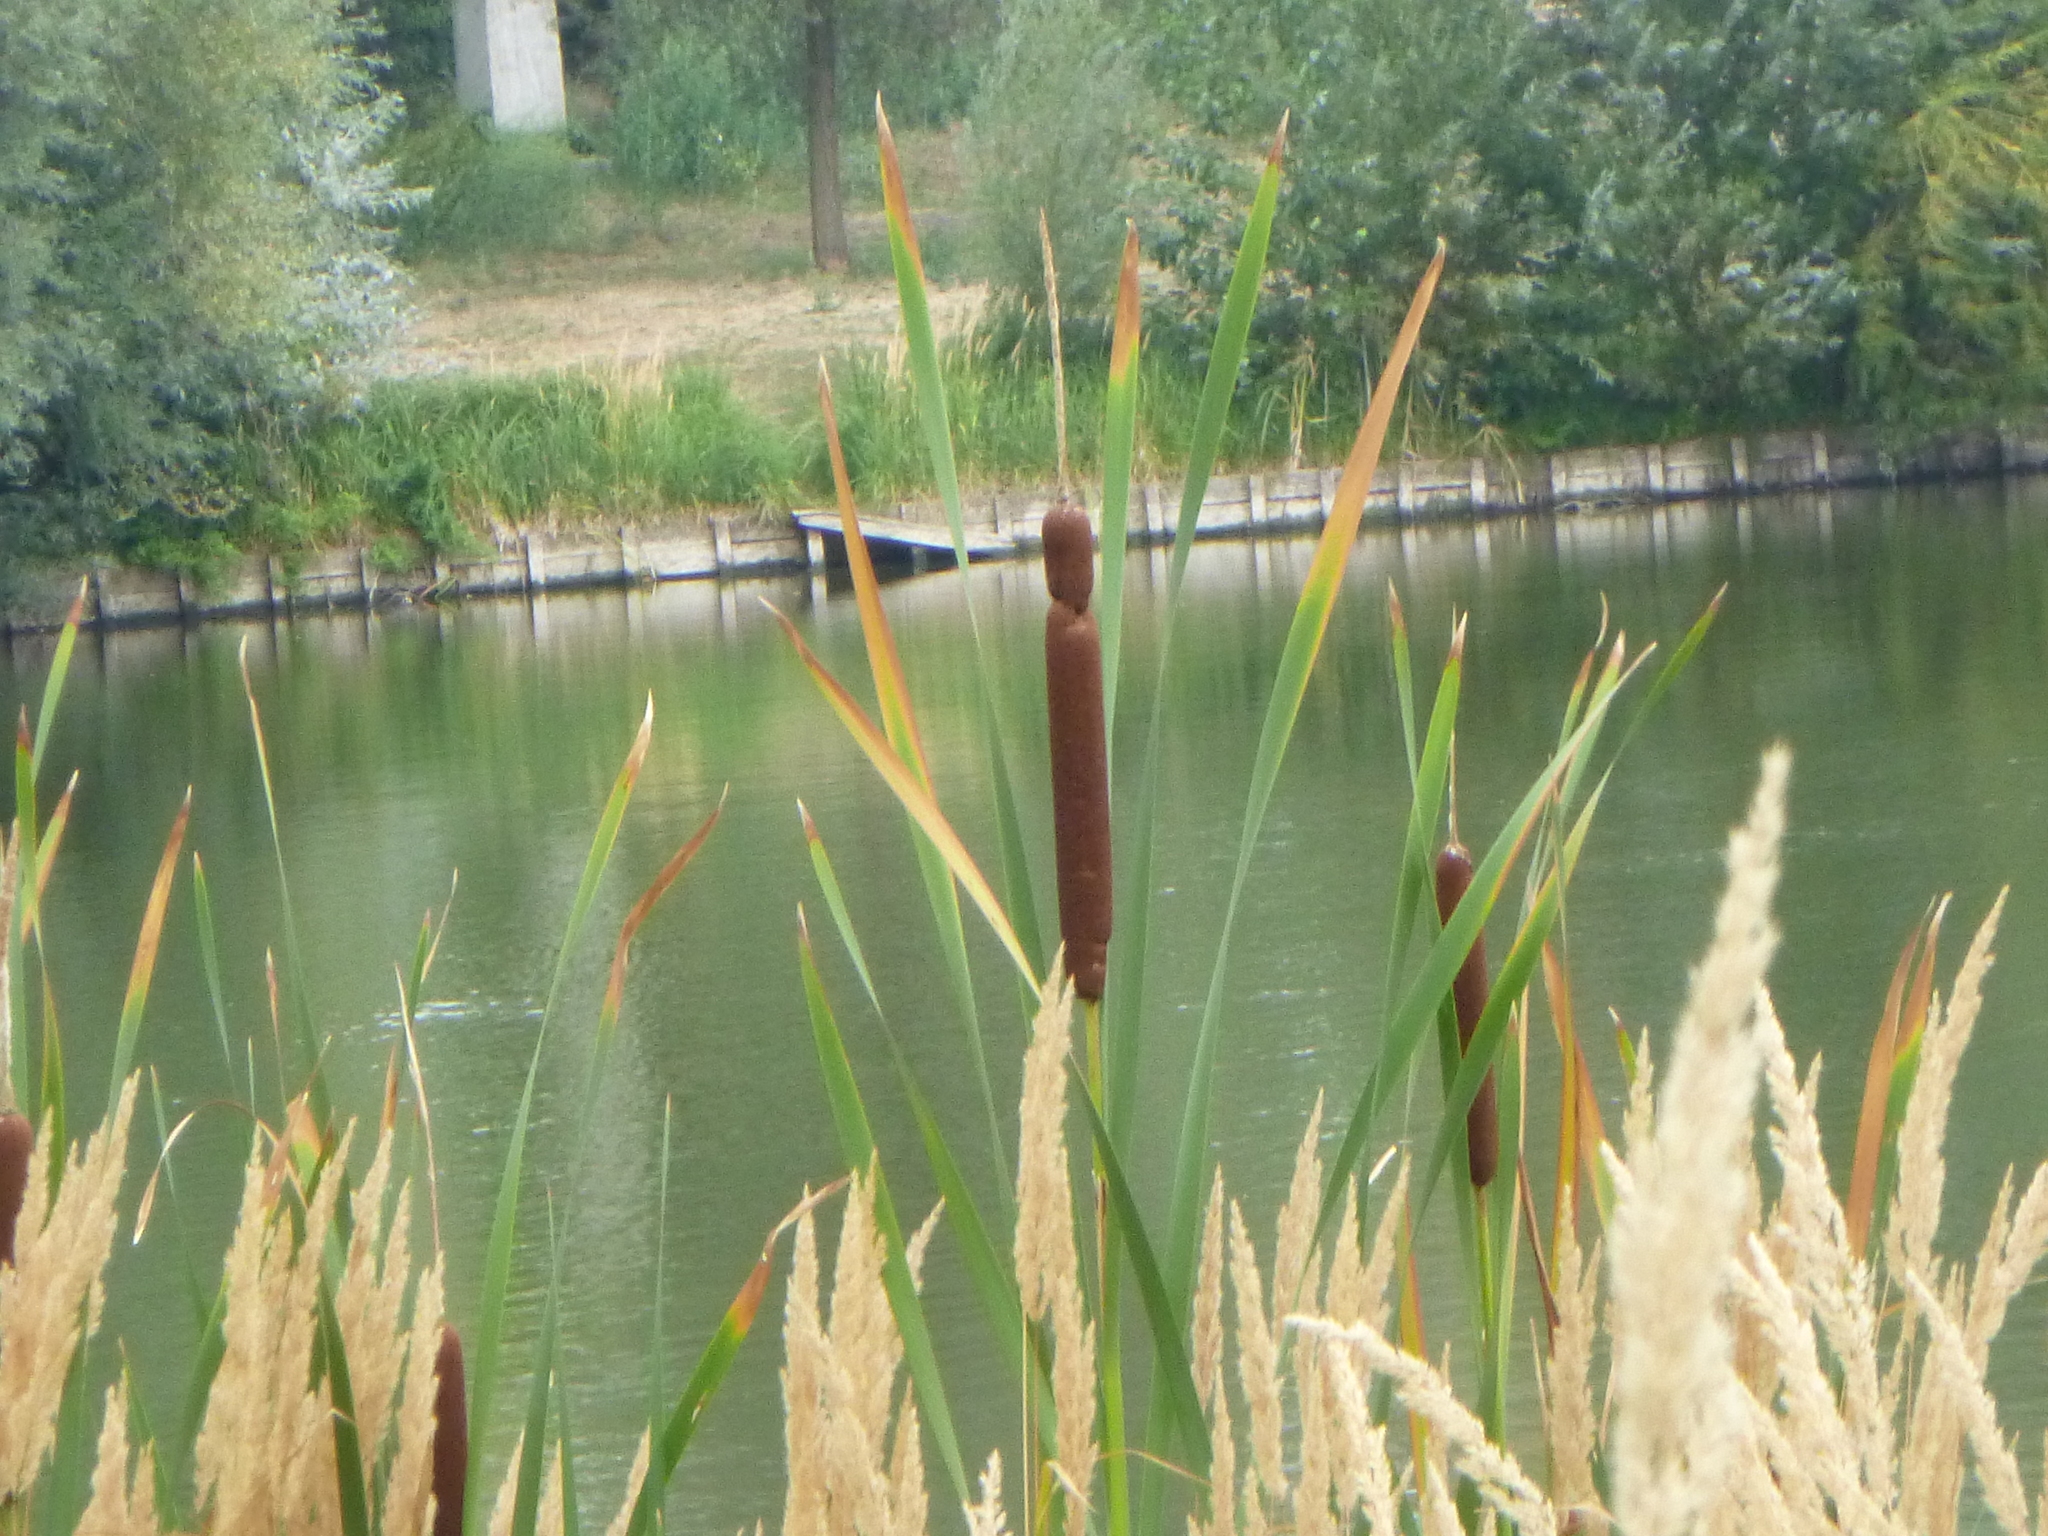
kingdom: Plantae
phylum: Tracheophyta
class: Liliopsida
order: Poales
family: Typhaceae
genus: Typha
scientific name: Typha latifolia
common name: Broadleaf cattail
